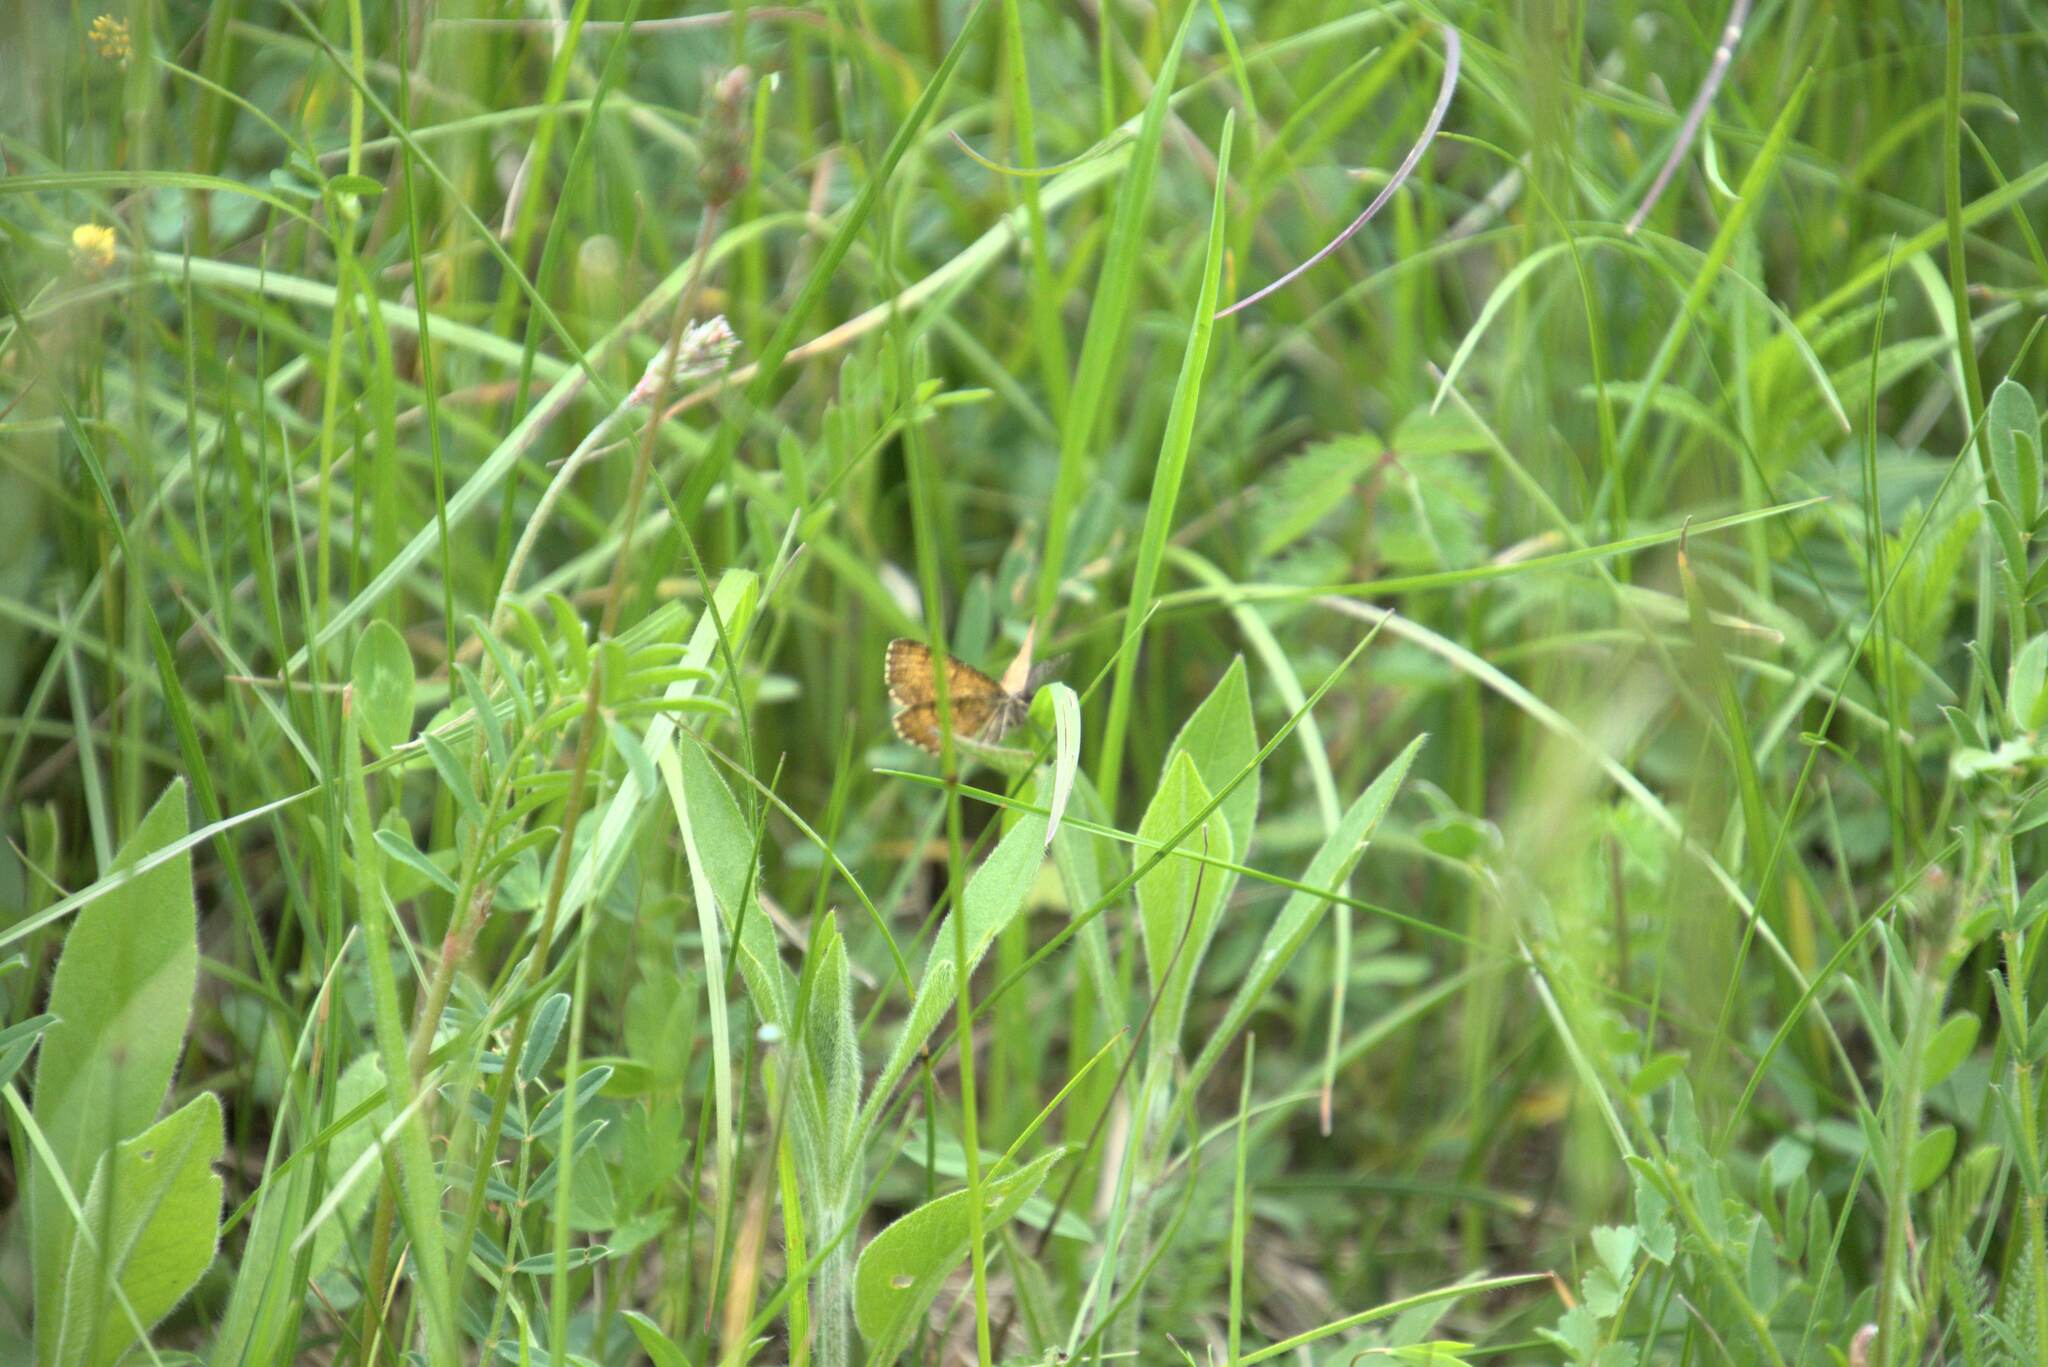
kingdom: Animalia
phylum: Arthropoda
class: Insecta
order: Lepidoptera
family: Geometridae
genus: Ematurga
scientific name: Ematurga atomaria
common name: Common heath
